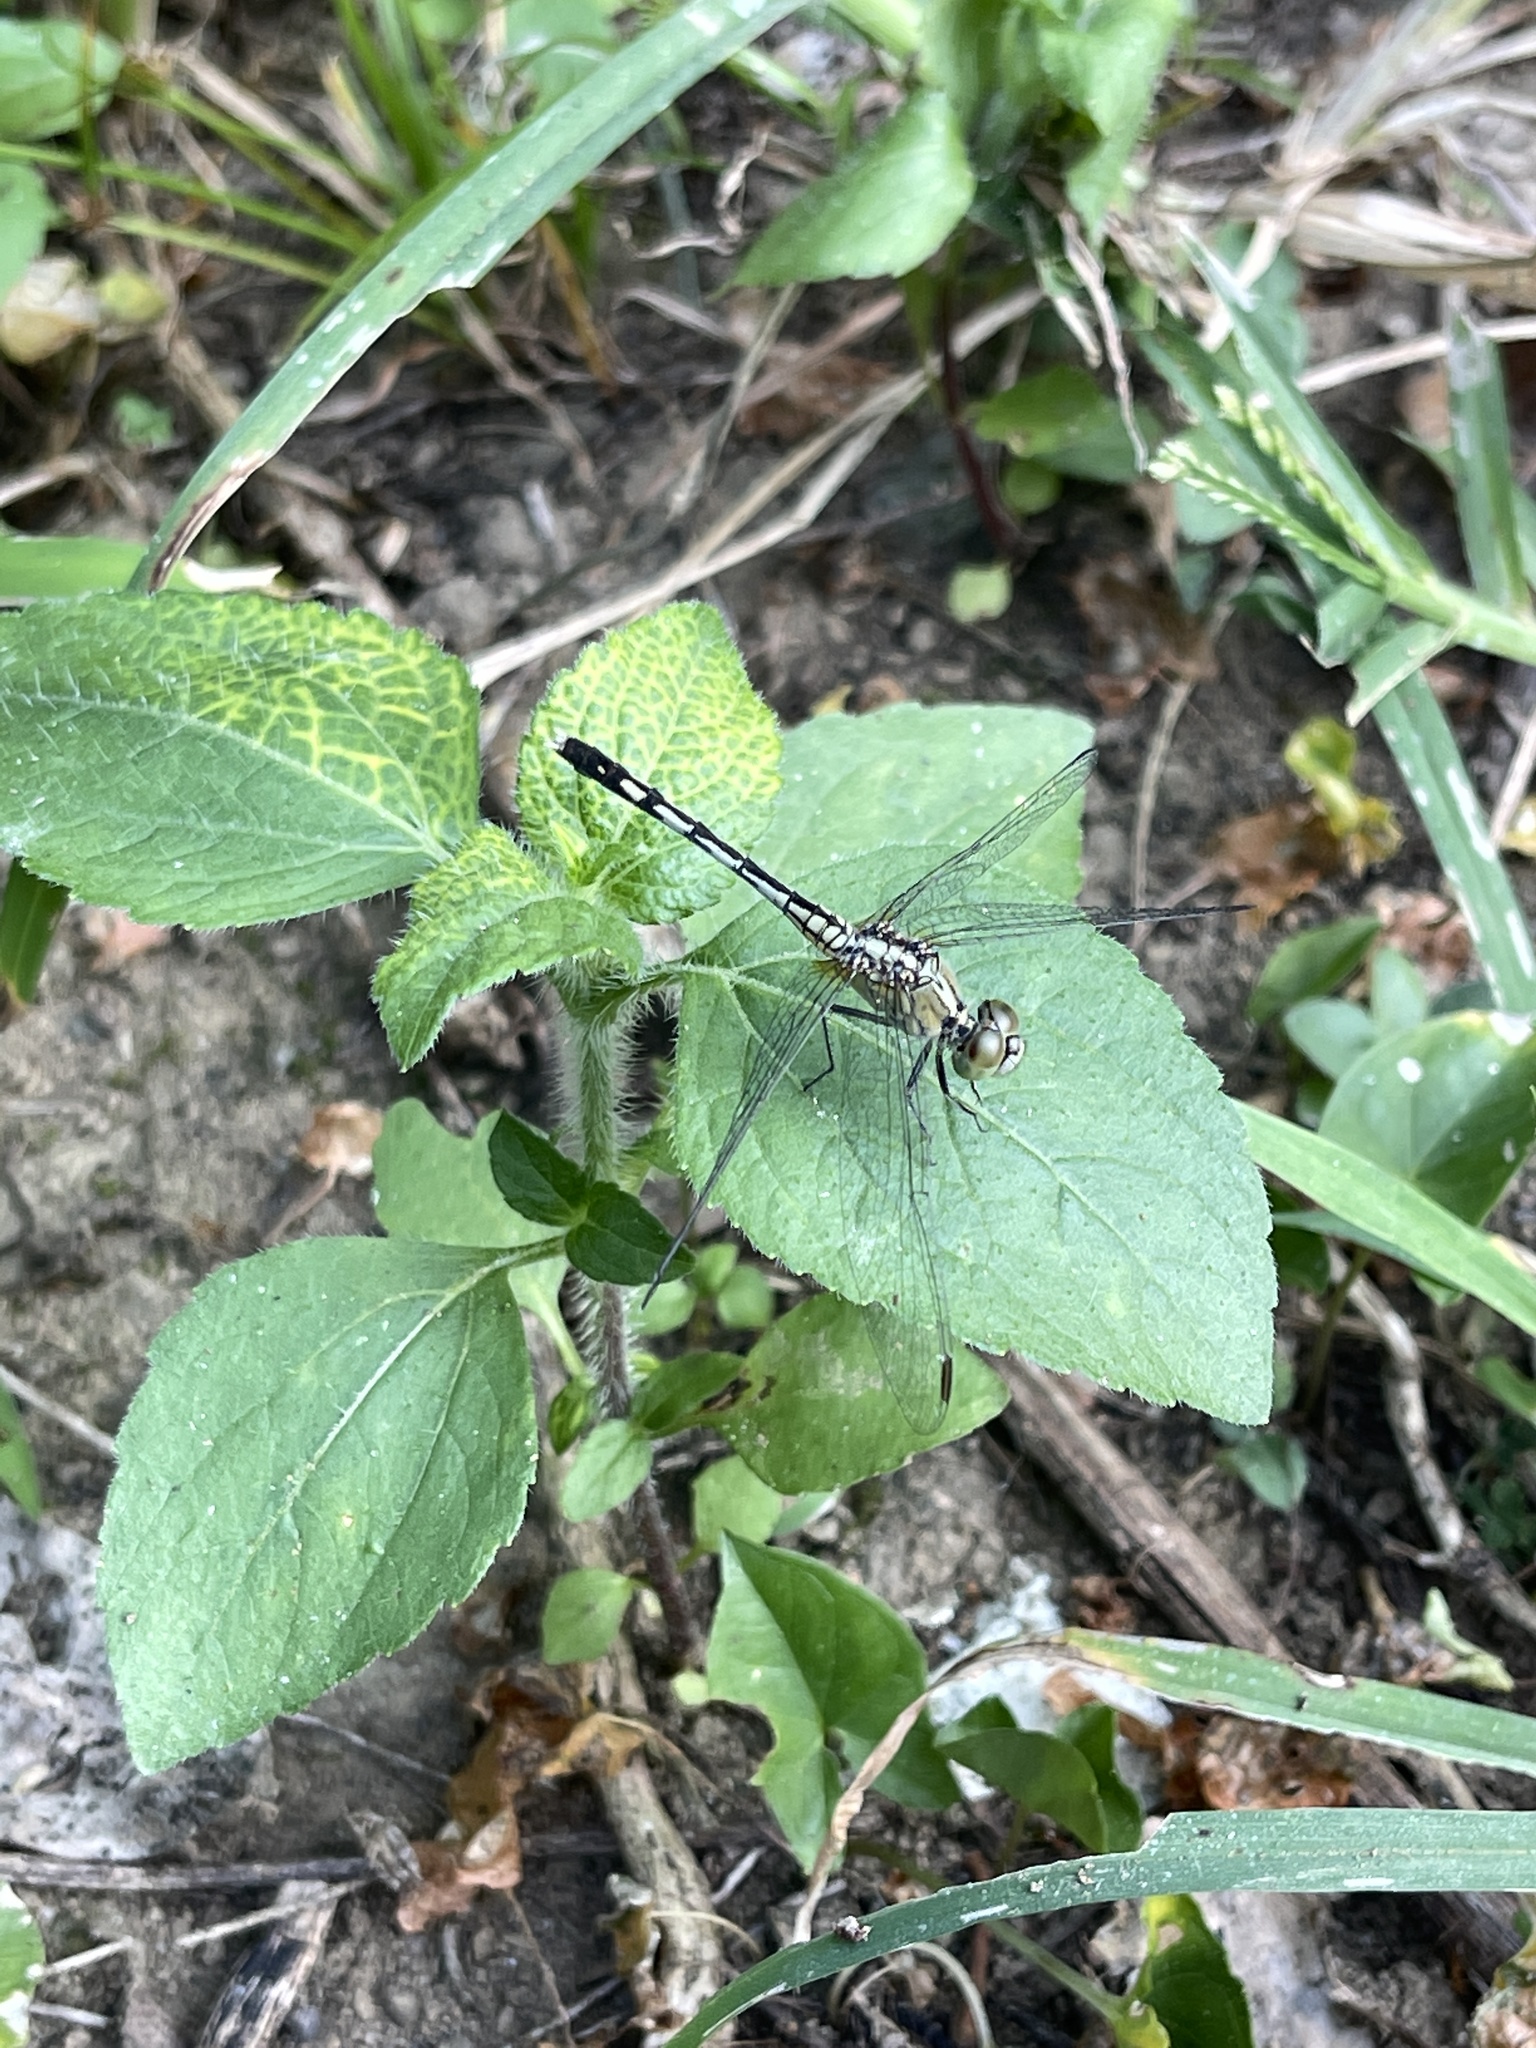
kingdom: Animalia
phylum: Arthropoda
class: Insecta
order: Odonata
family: Libellulidae
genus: Diplacodes
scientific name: Diplacodes trivialis
